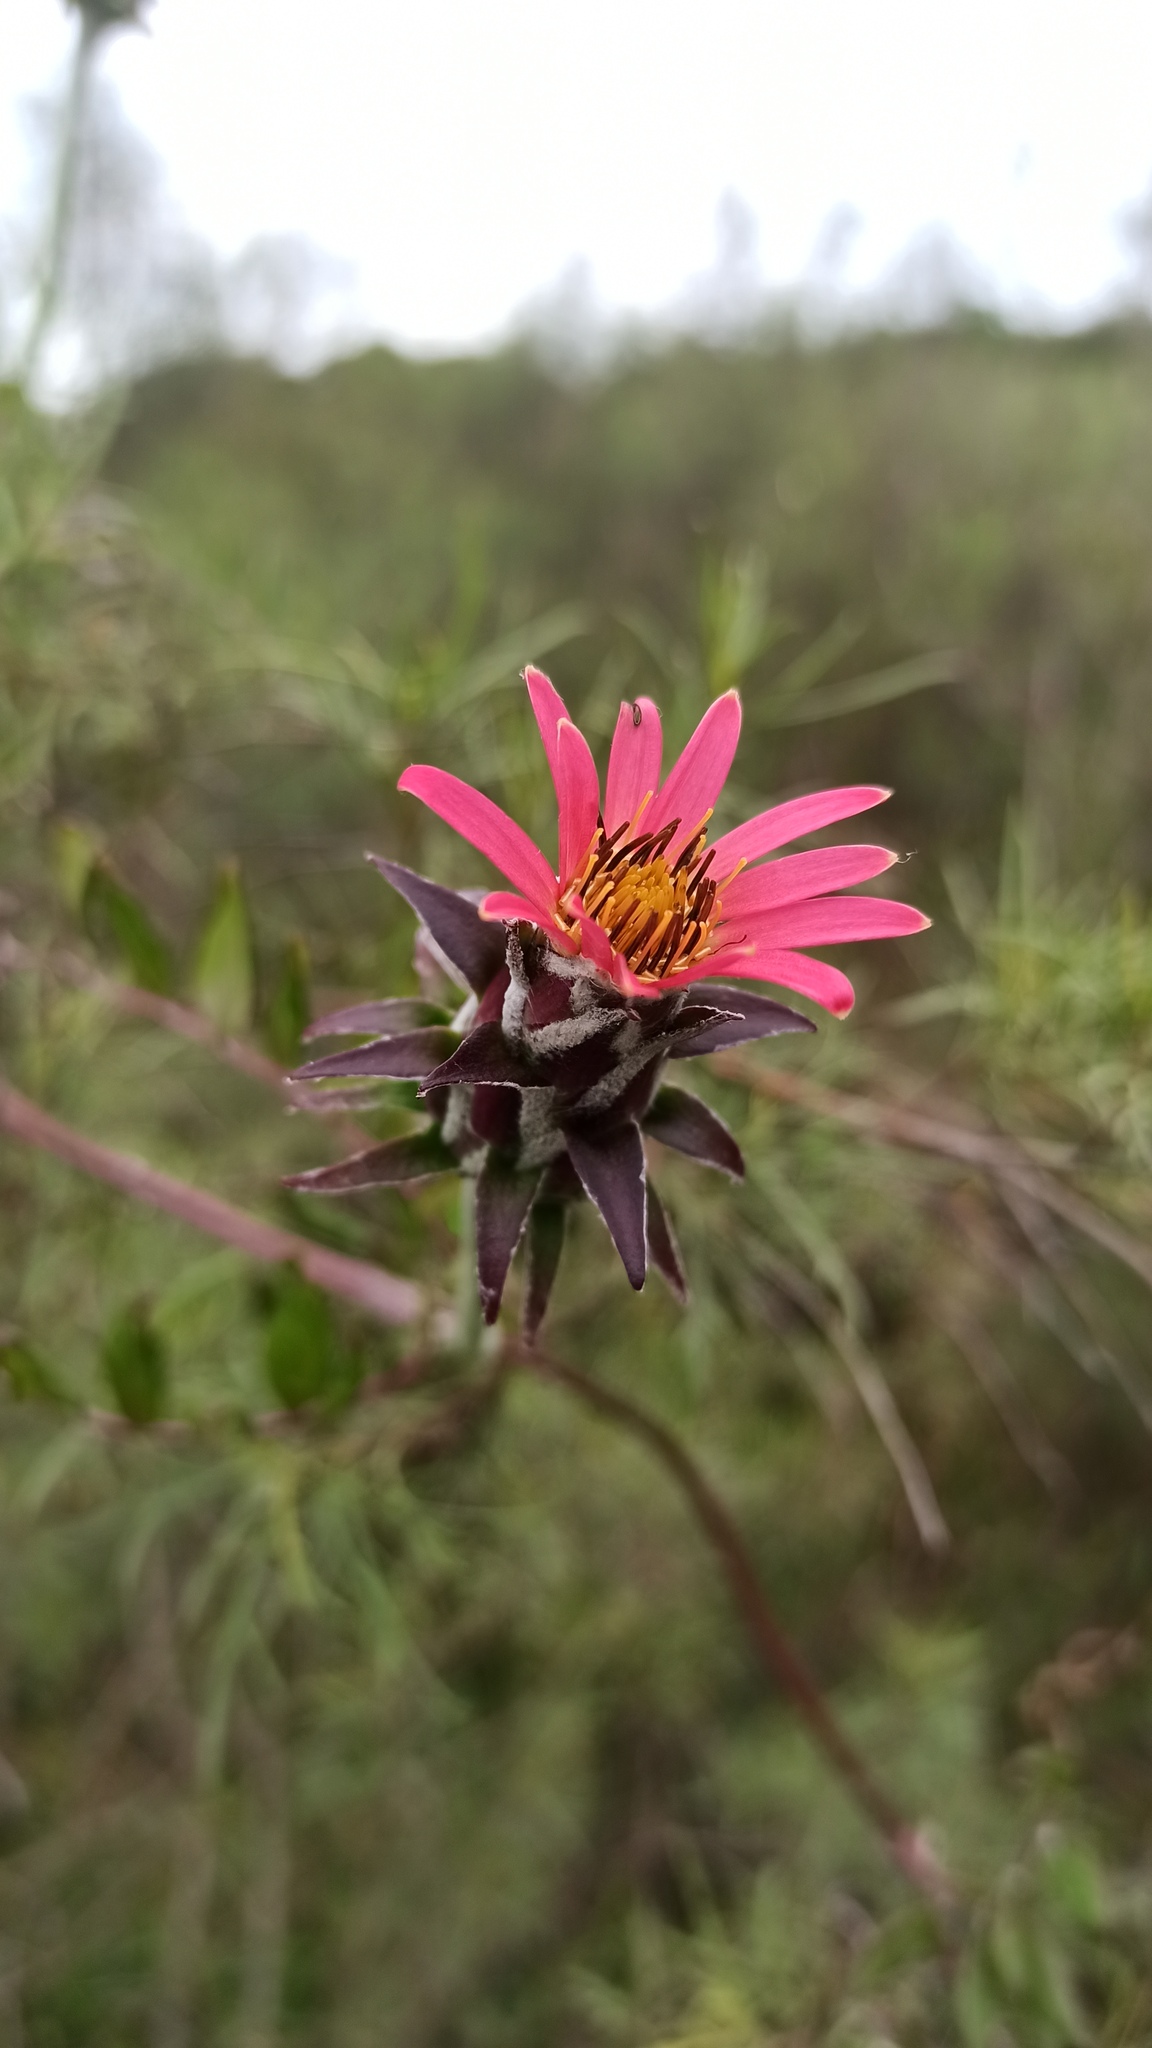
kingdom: Plantae
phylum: Tracheophyta
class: Magnoliopsida
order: Asterales
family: Asteraceae
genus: Mutisia
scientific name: Mutisia coccinea
